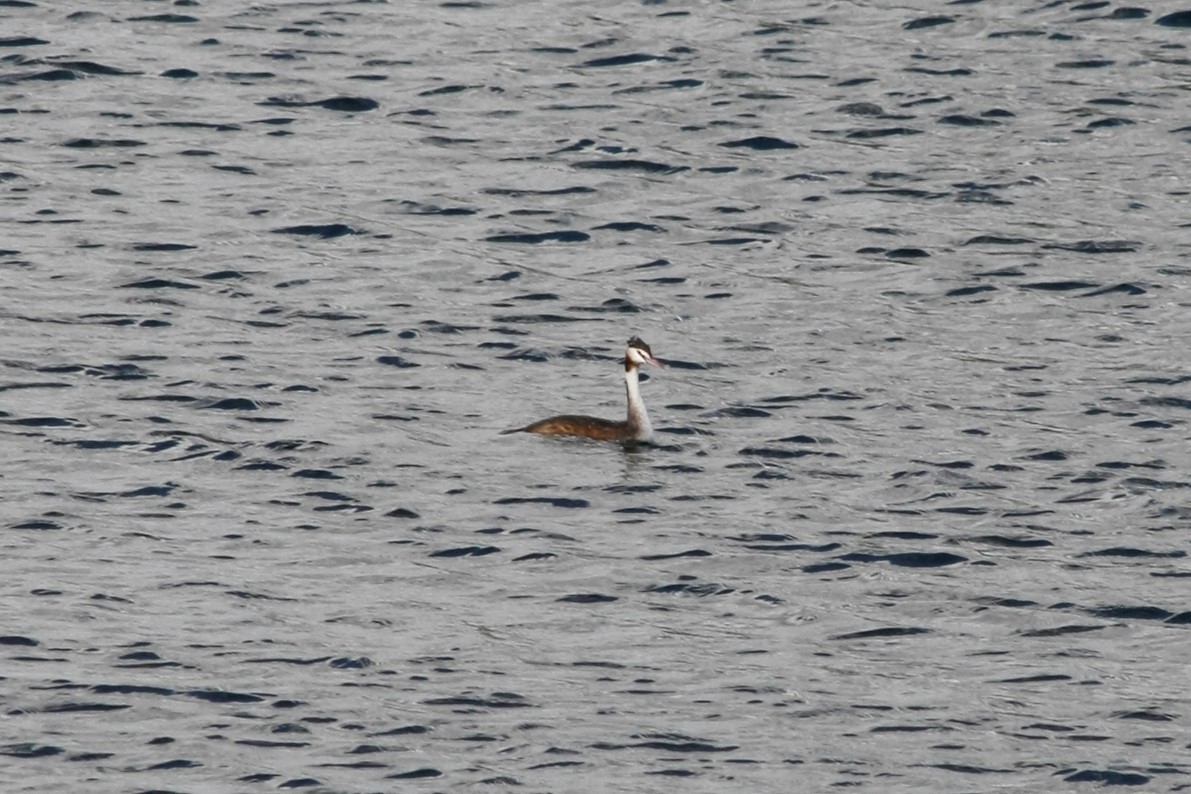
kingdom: Animalia
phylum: Chordata
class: Aves
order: Podicipediformes
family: Podicipedidae
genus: Podiceps
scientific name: Podiceps cristatus
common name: Great crested grebe
